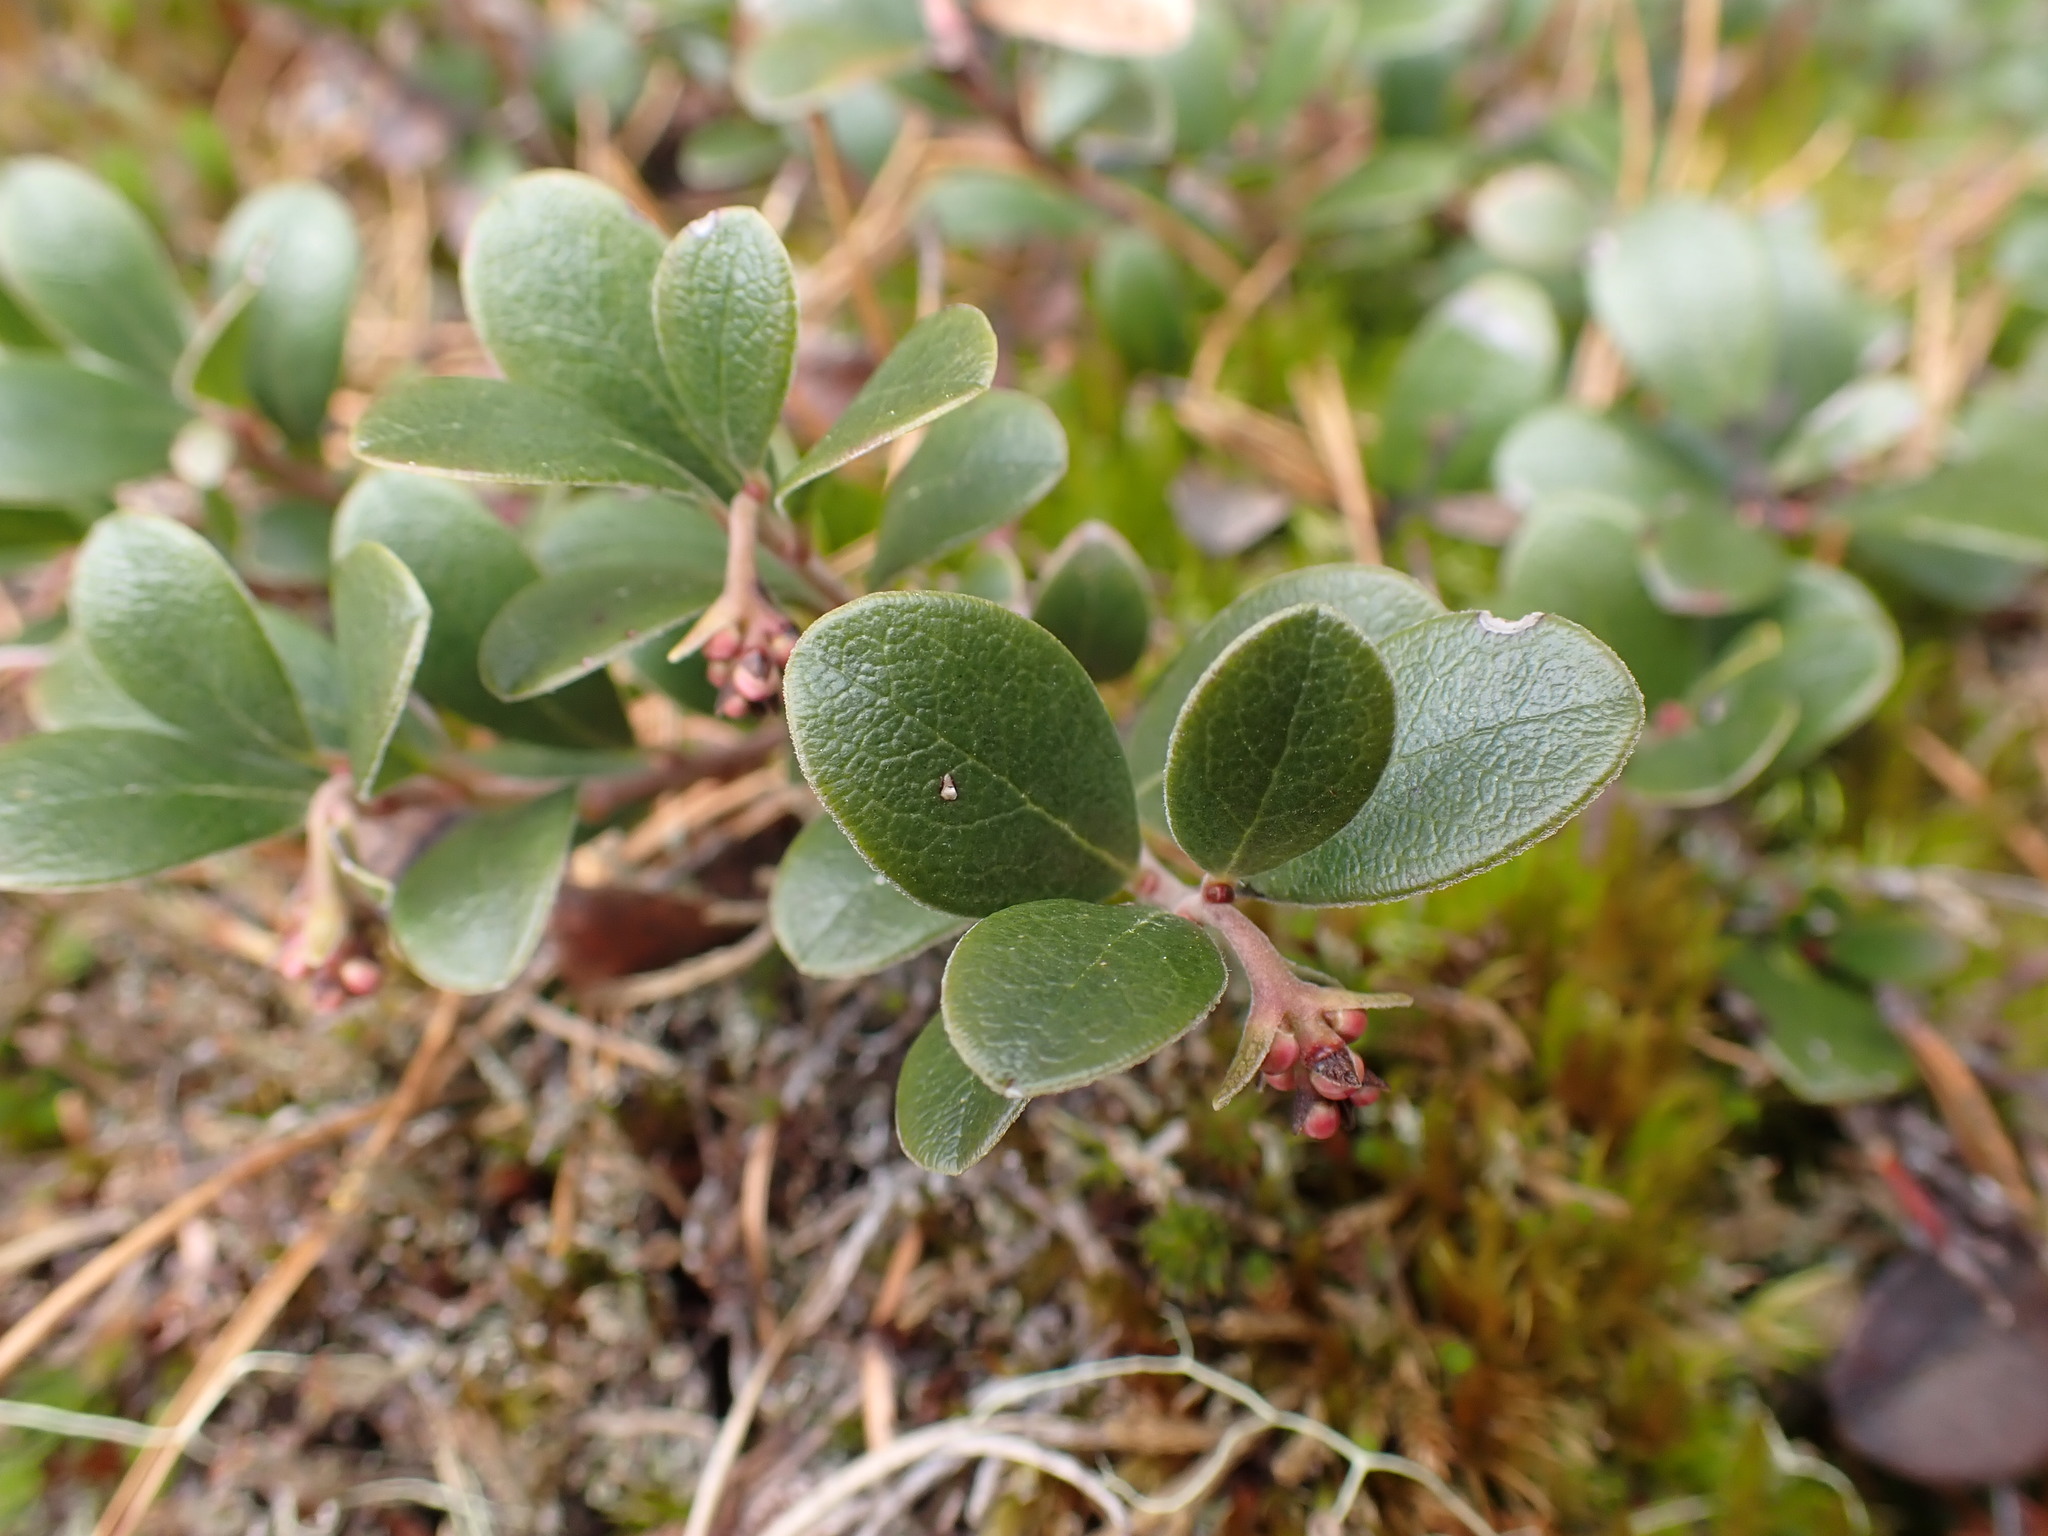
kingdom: Plantae
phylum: Tracheophyta
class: Magnoliopsida
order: Ericales
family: Ericaceae
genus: Arctostaphylos
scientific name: Arctostaphylos uva-ursi
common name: Bearberry
